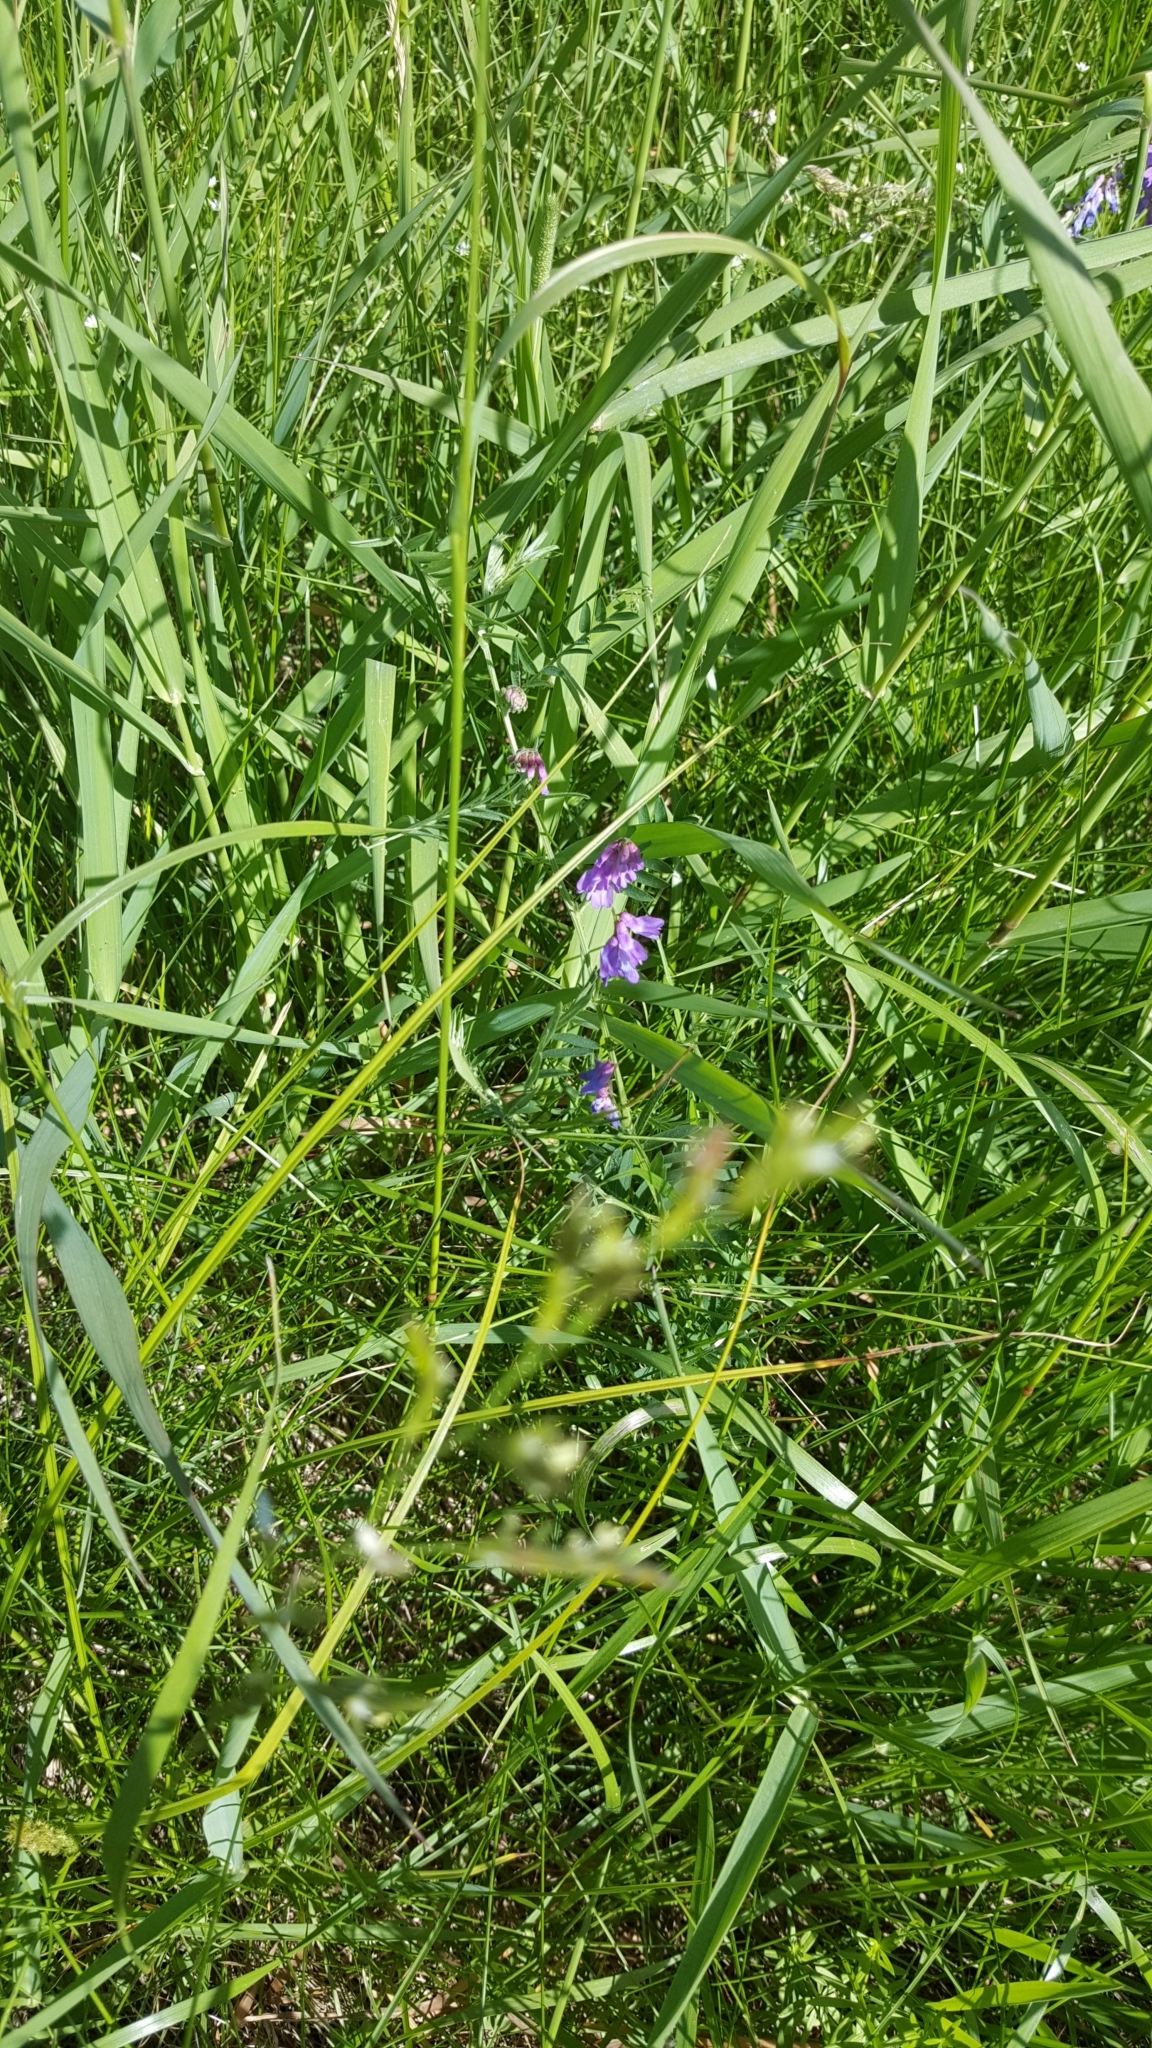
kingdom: Plantae
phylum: Tracheophyta
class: Magnoliopsida
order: Fabales
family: Fabaceae
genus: Vicia
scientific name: Vicia cracca
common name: Bird vetch
